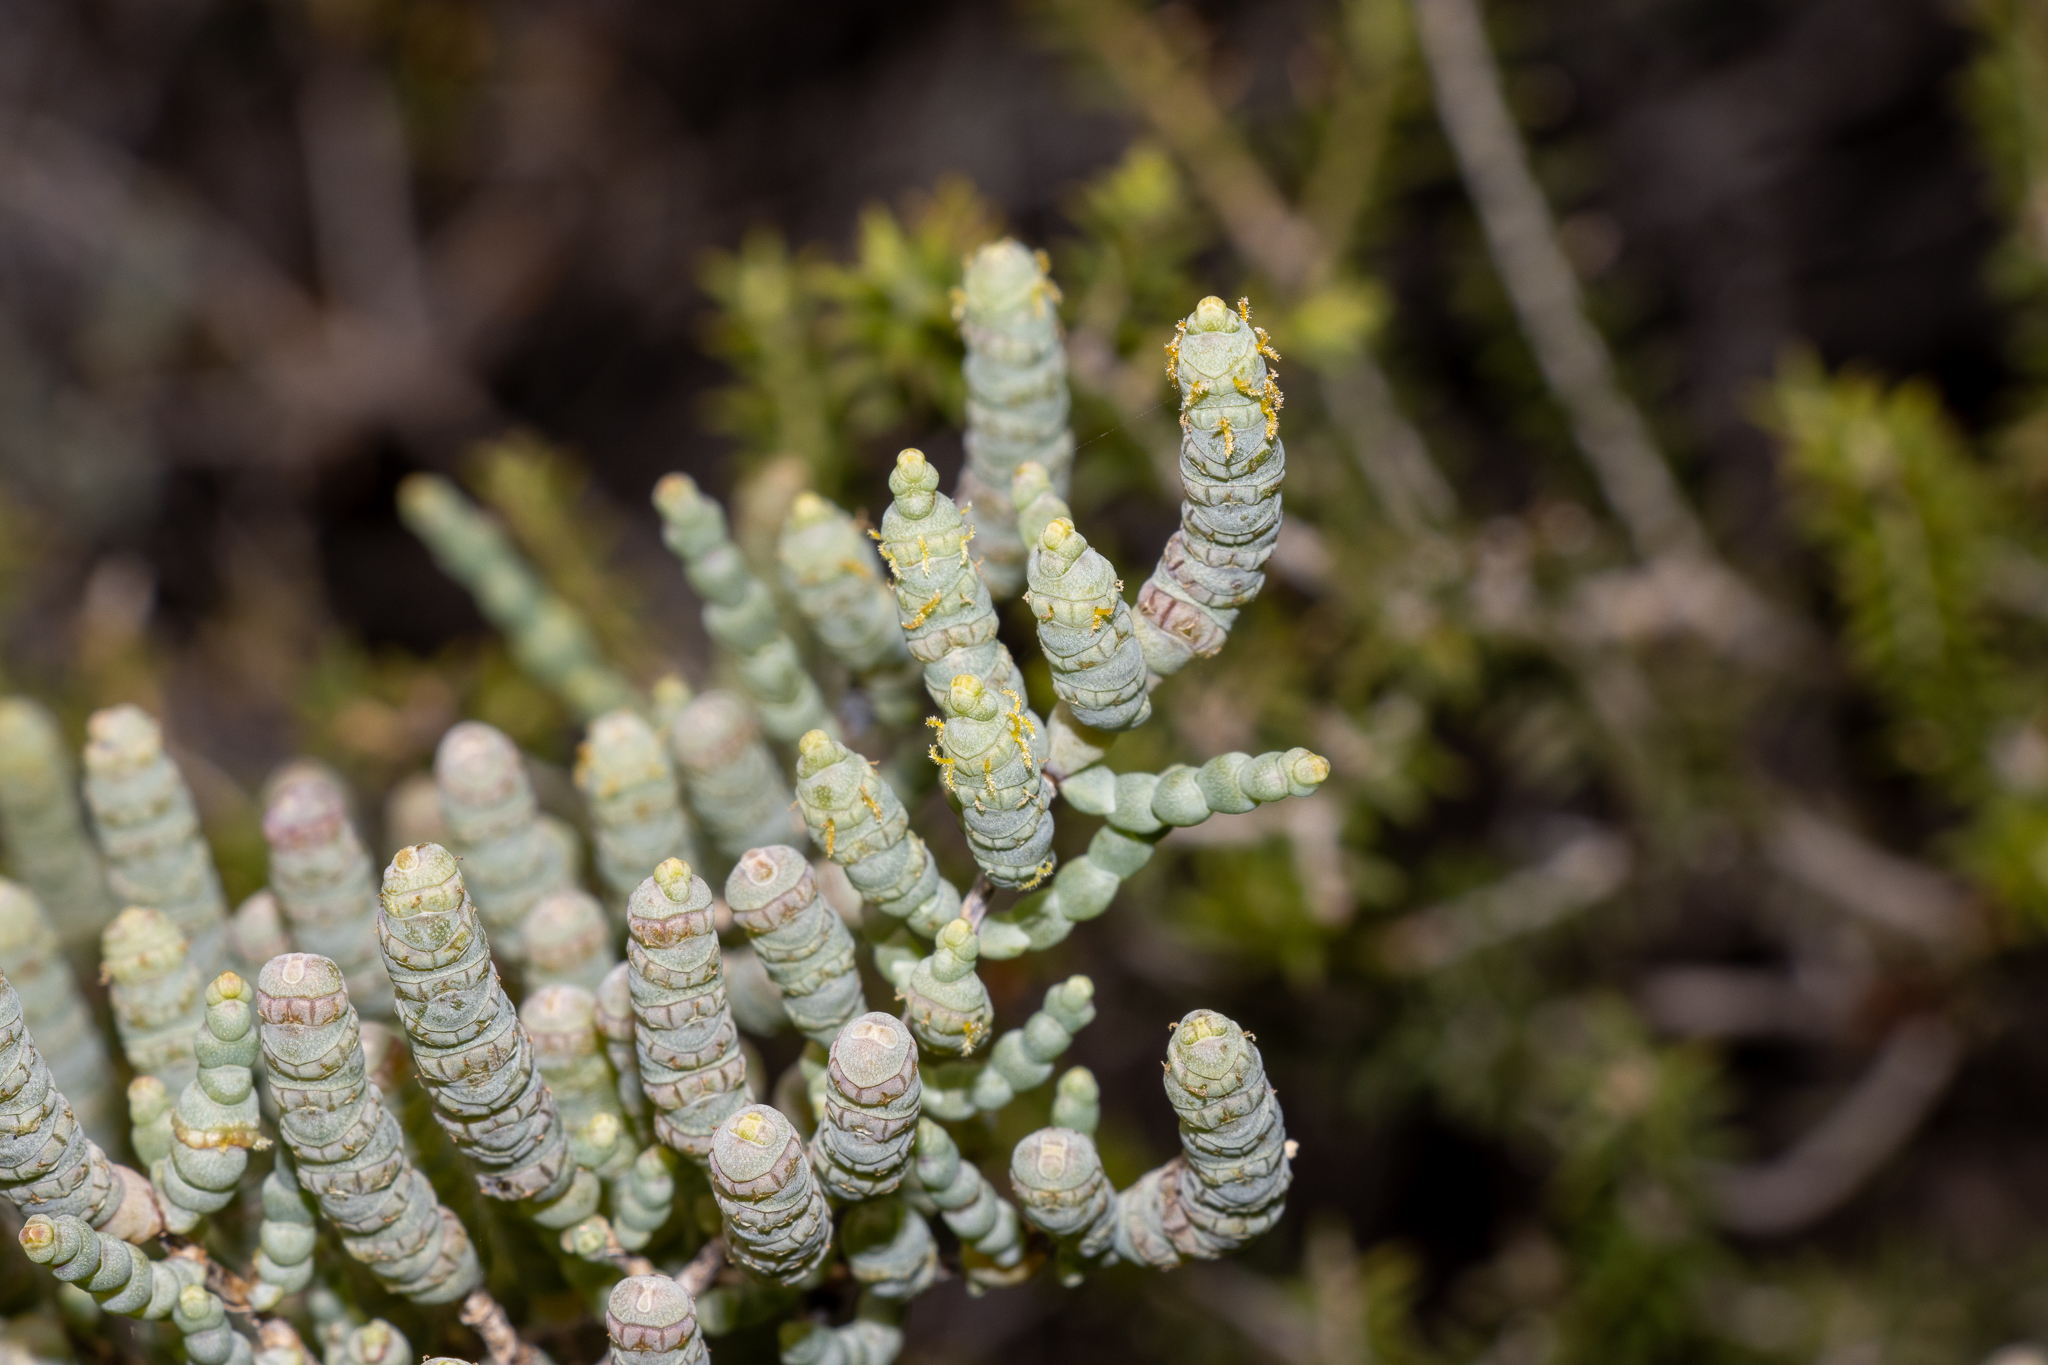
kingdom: Plantae
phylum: Tracheophyta
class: Magnoliopsida
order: Caryophyllales
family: Amaranthaceae
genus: Tecticornia
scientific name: Tecticornia pterygosperma
